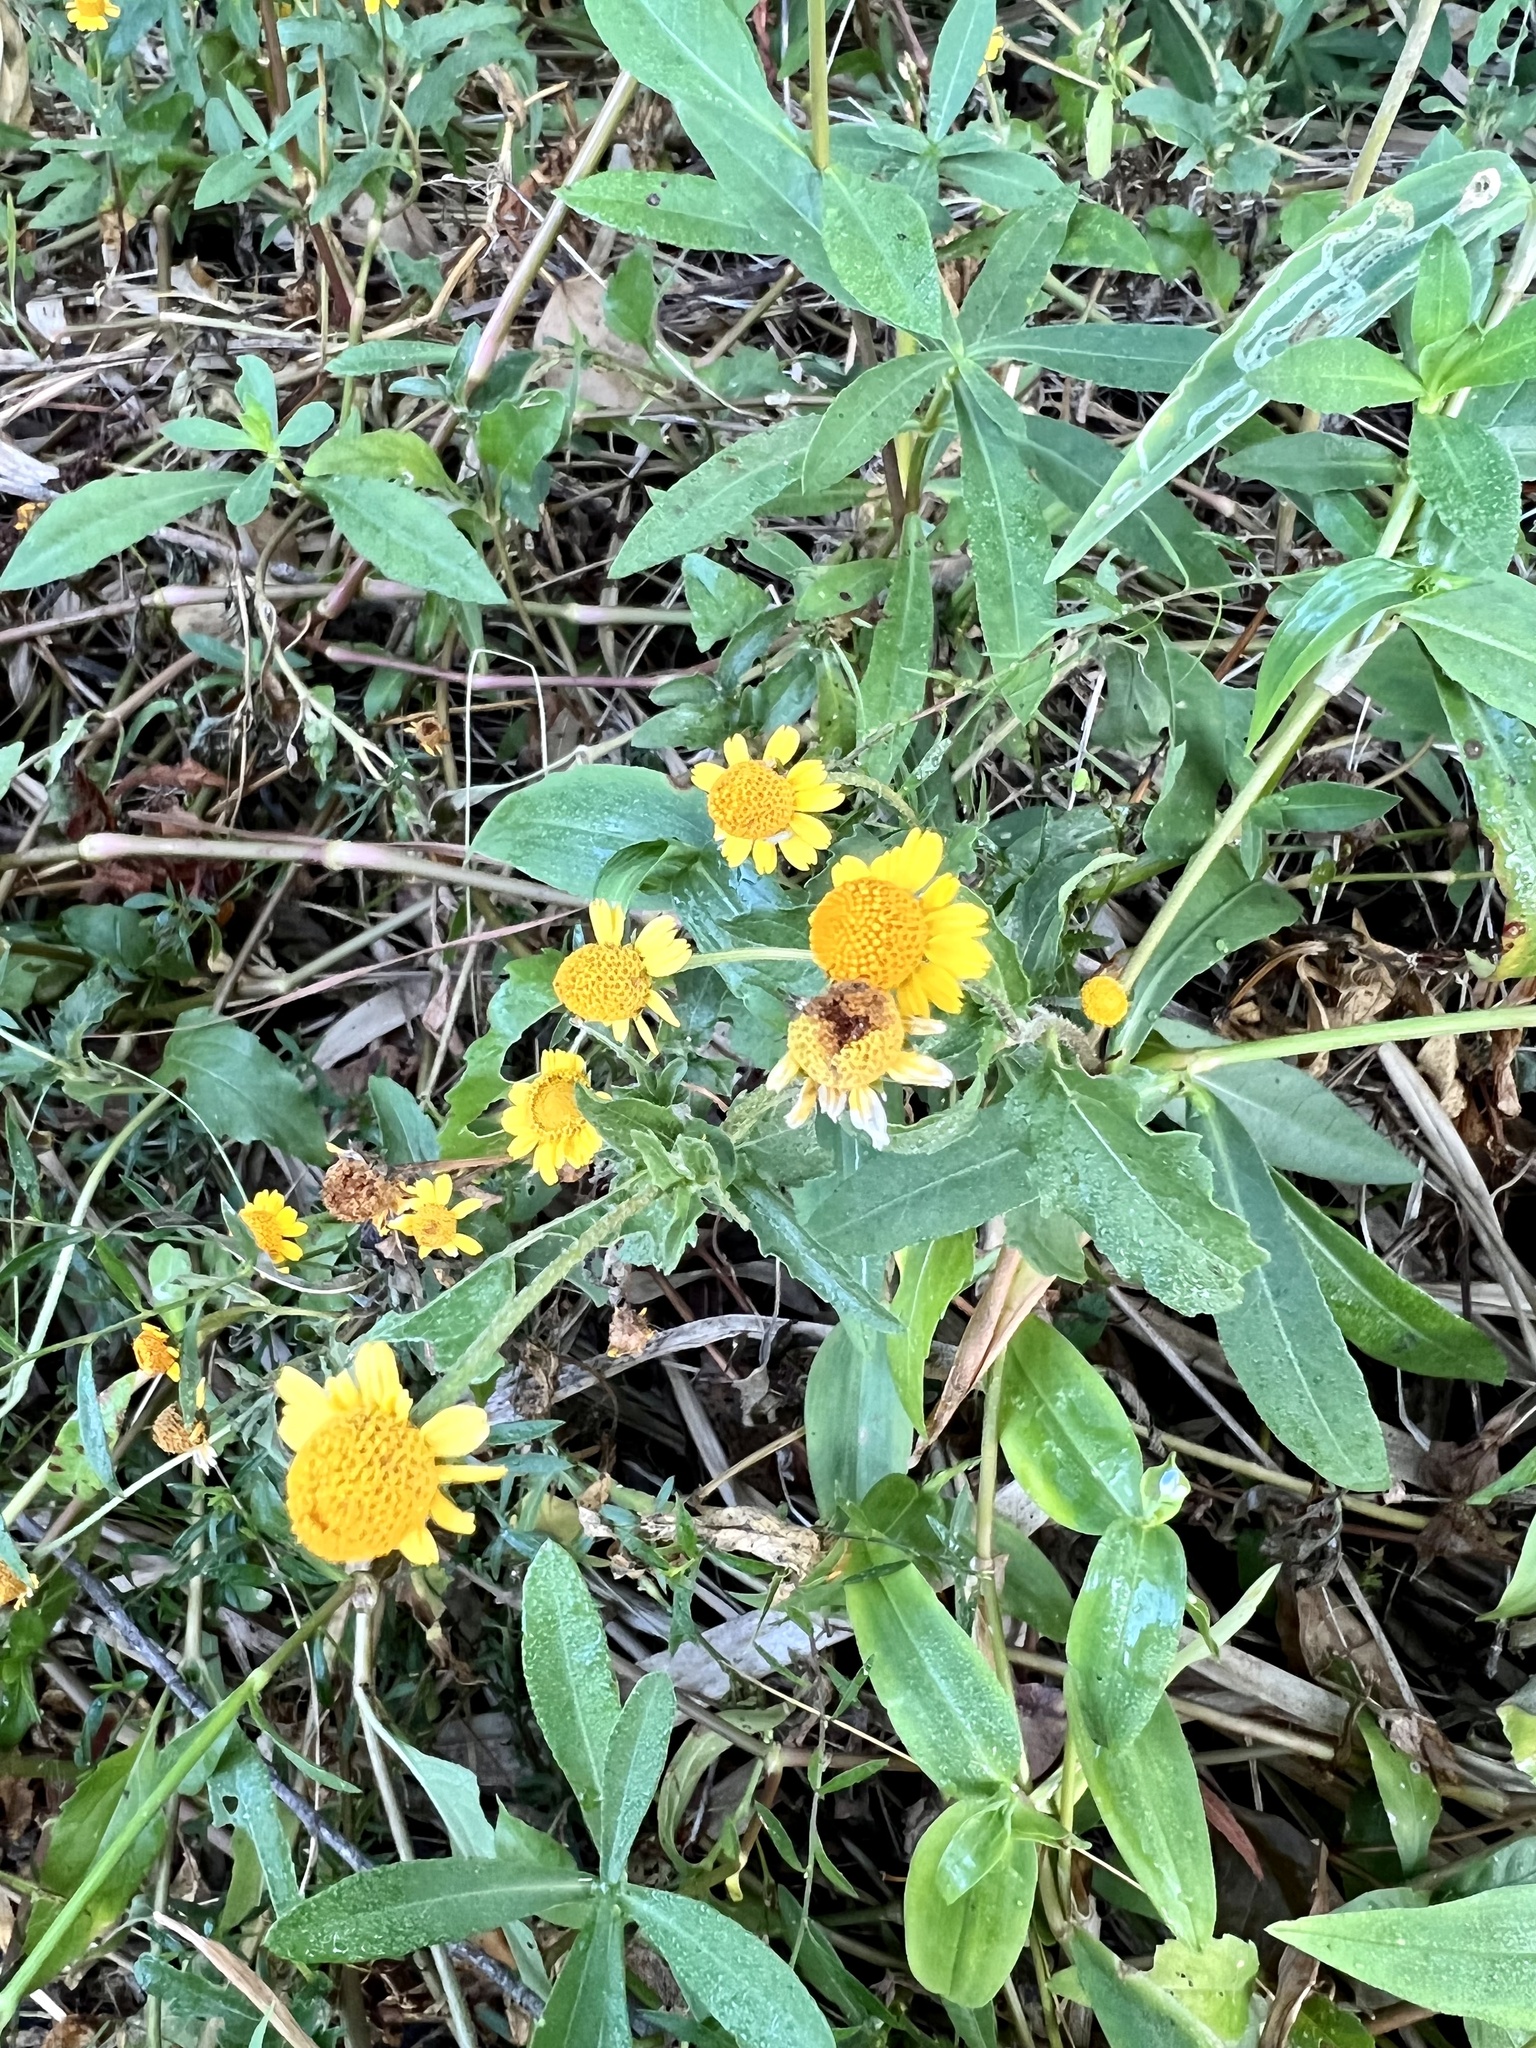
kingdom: Plantae
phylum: Tracheophyta
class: Magnoliopsida
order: Asterales
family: Asteraceae
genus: Acmella
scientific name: Acmella repens
